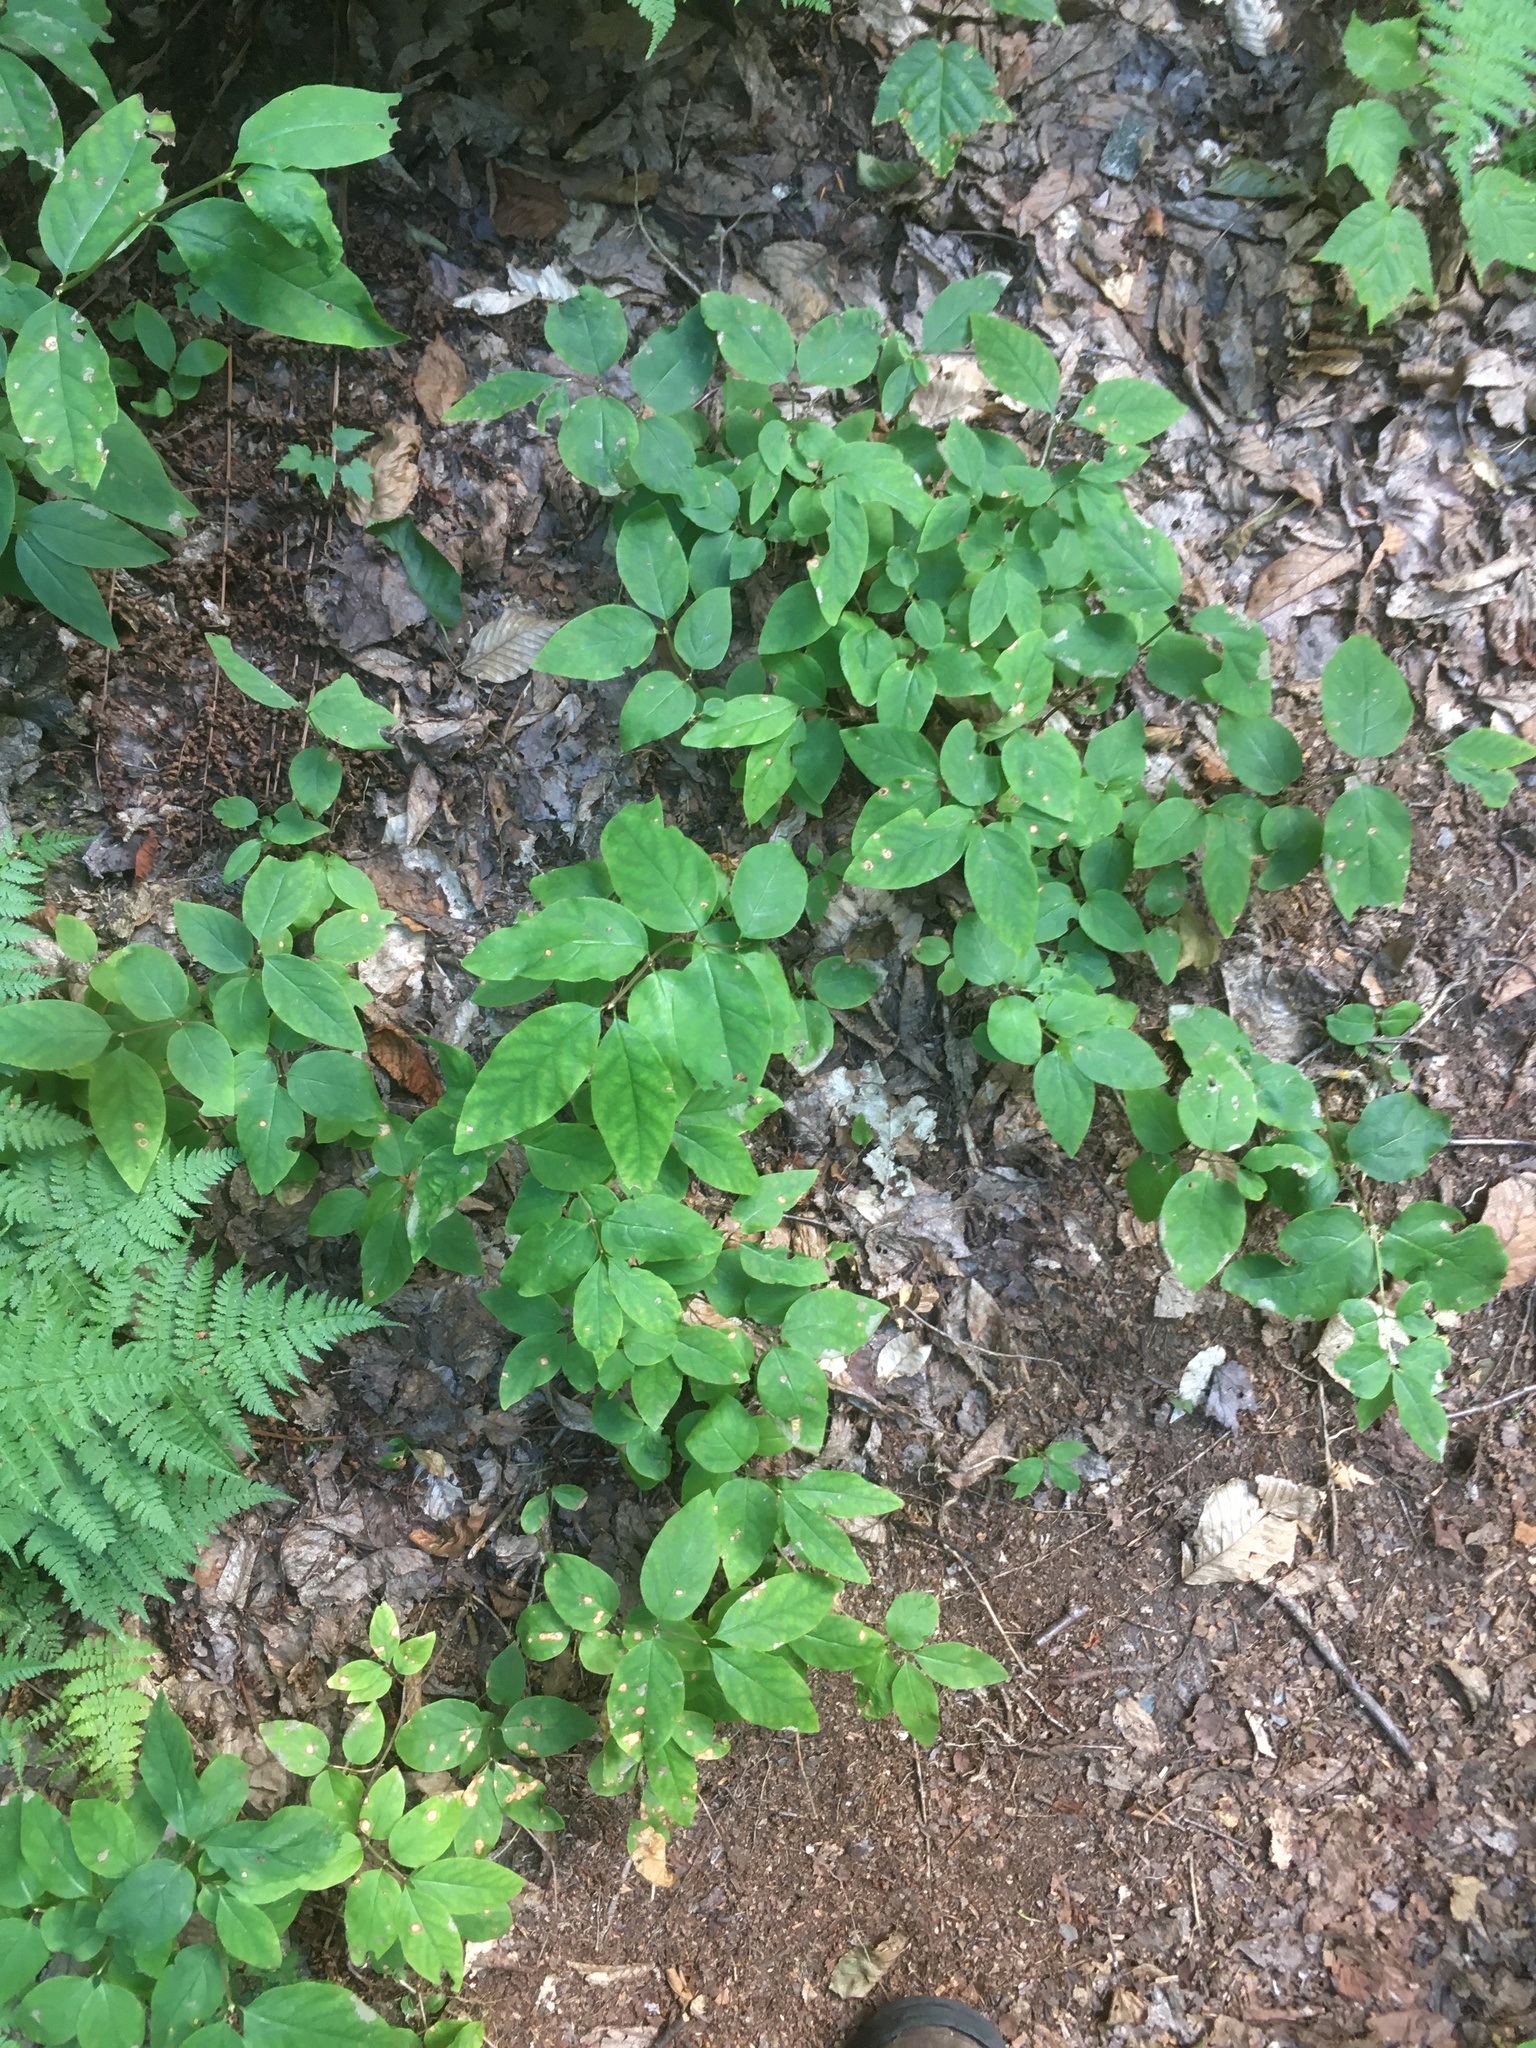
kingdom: Plantae
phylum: Tracheophyta
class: Magnoliopsida
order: Dipsacales
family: Caprifoliaceae
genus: Lonicera
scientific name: Lonicera canadensis
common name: American fly-honeysuckle
